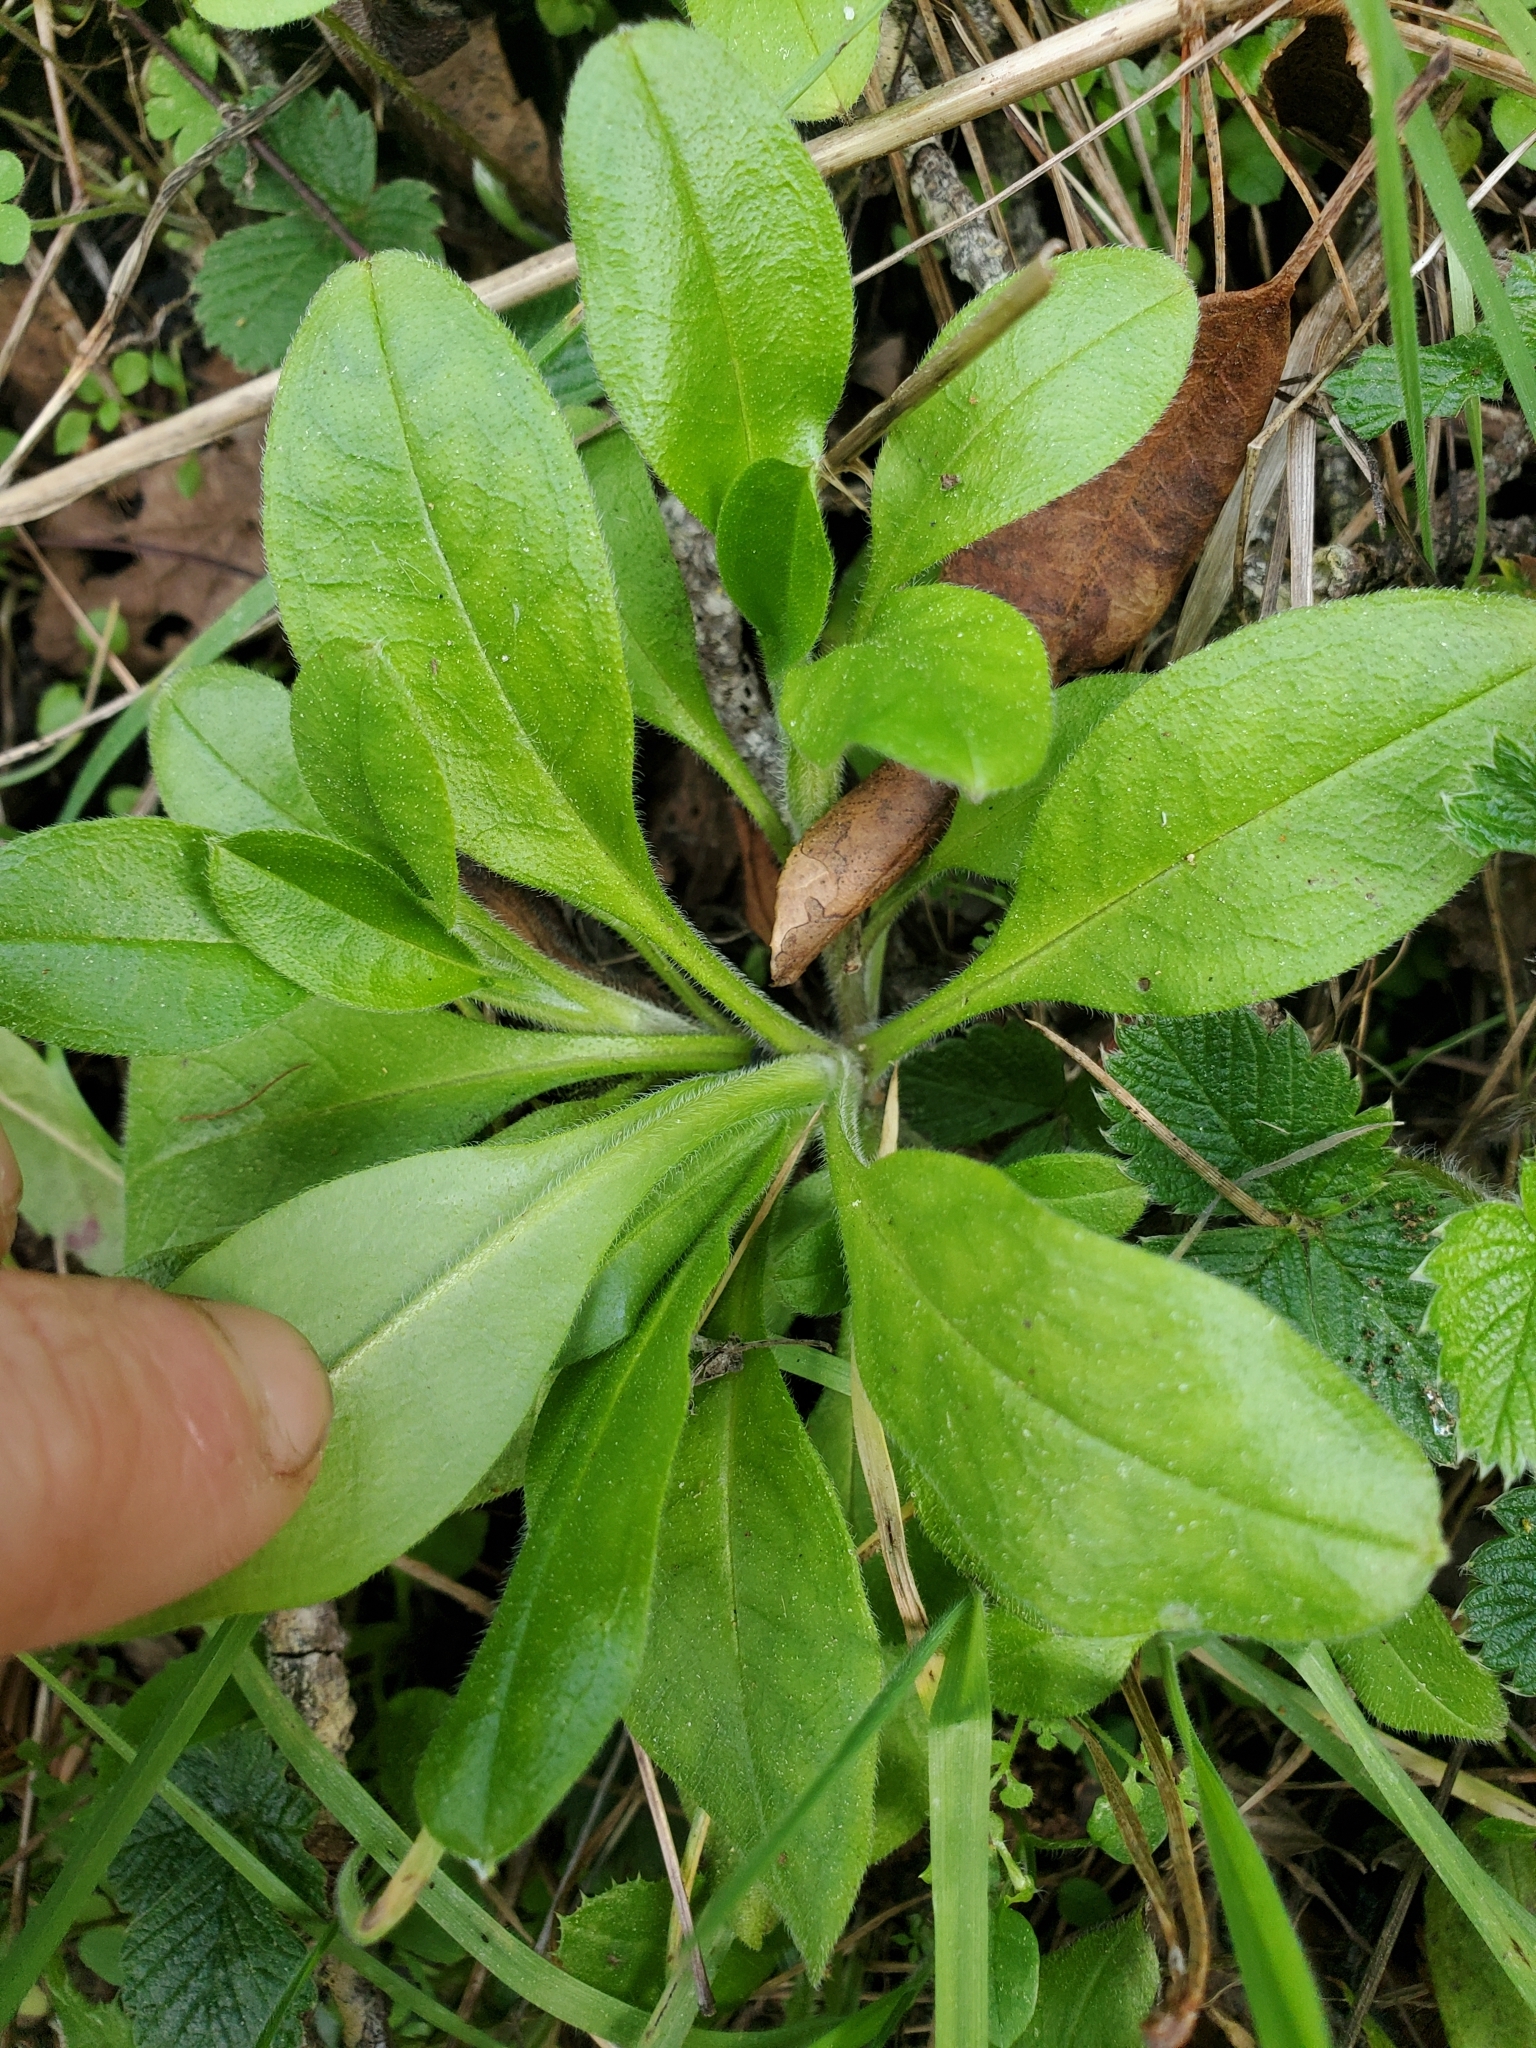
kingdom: Plantae
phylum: Tracheophyta
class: Magnoliopsida
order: Boraginales
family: Boraginaceae
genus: Myosotis
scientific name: Myosotis latifolia
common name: Broadleaf forget-me-not
